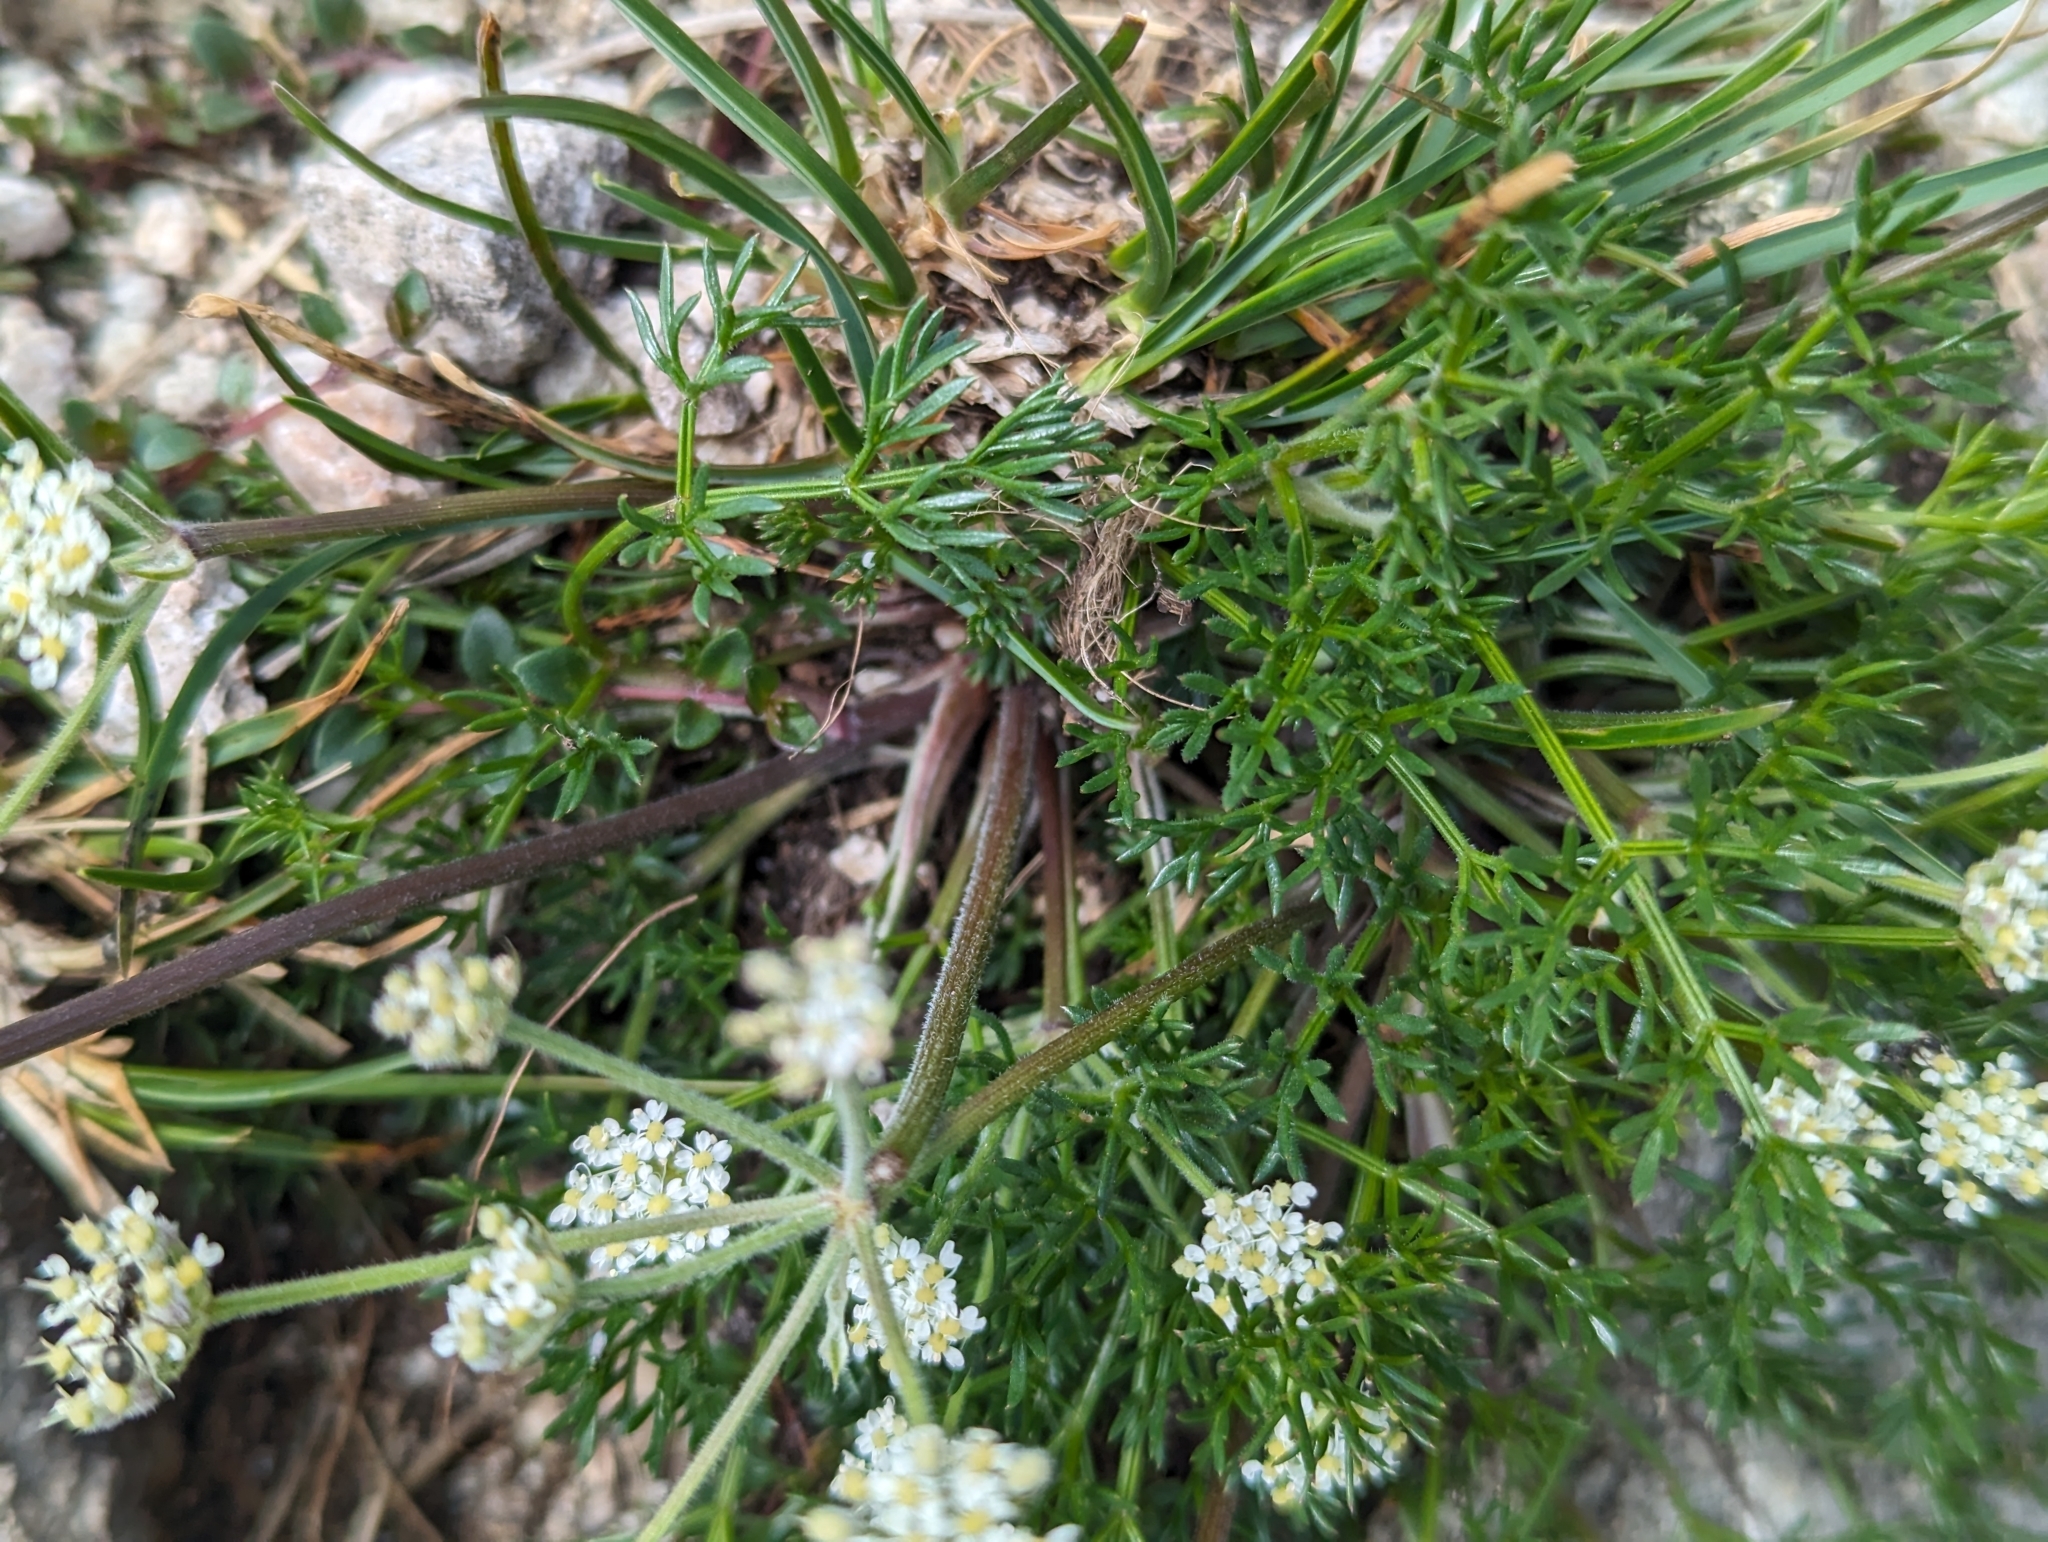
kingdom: Plantae
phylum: Tracheophyta
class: Magnoliopsida
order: Apiales
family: Apiaceae
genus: Athamanta
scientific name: Athamanta cretensis
